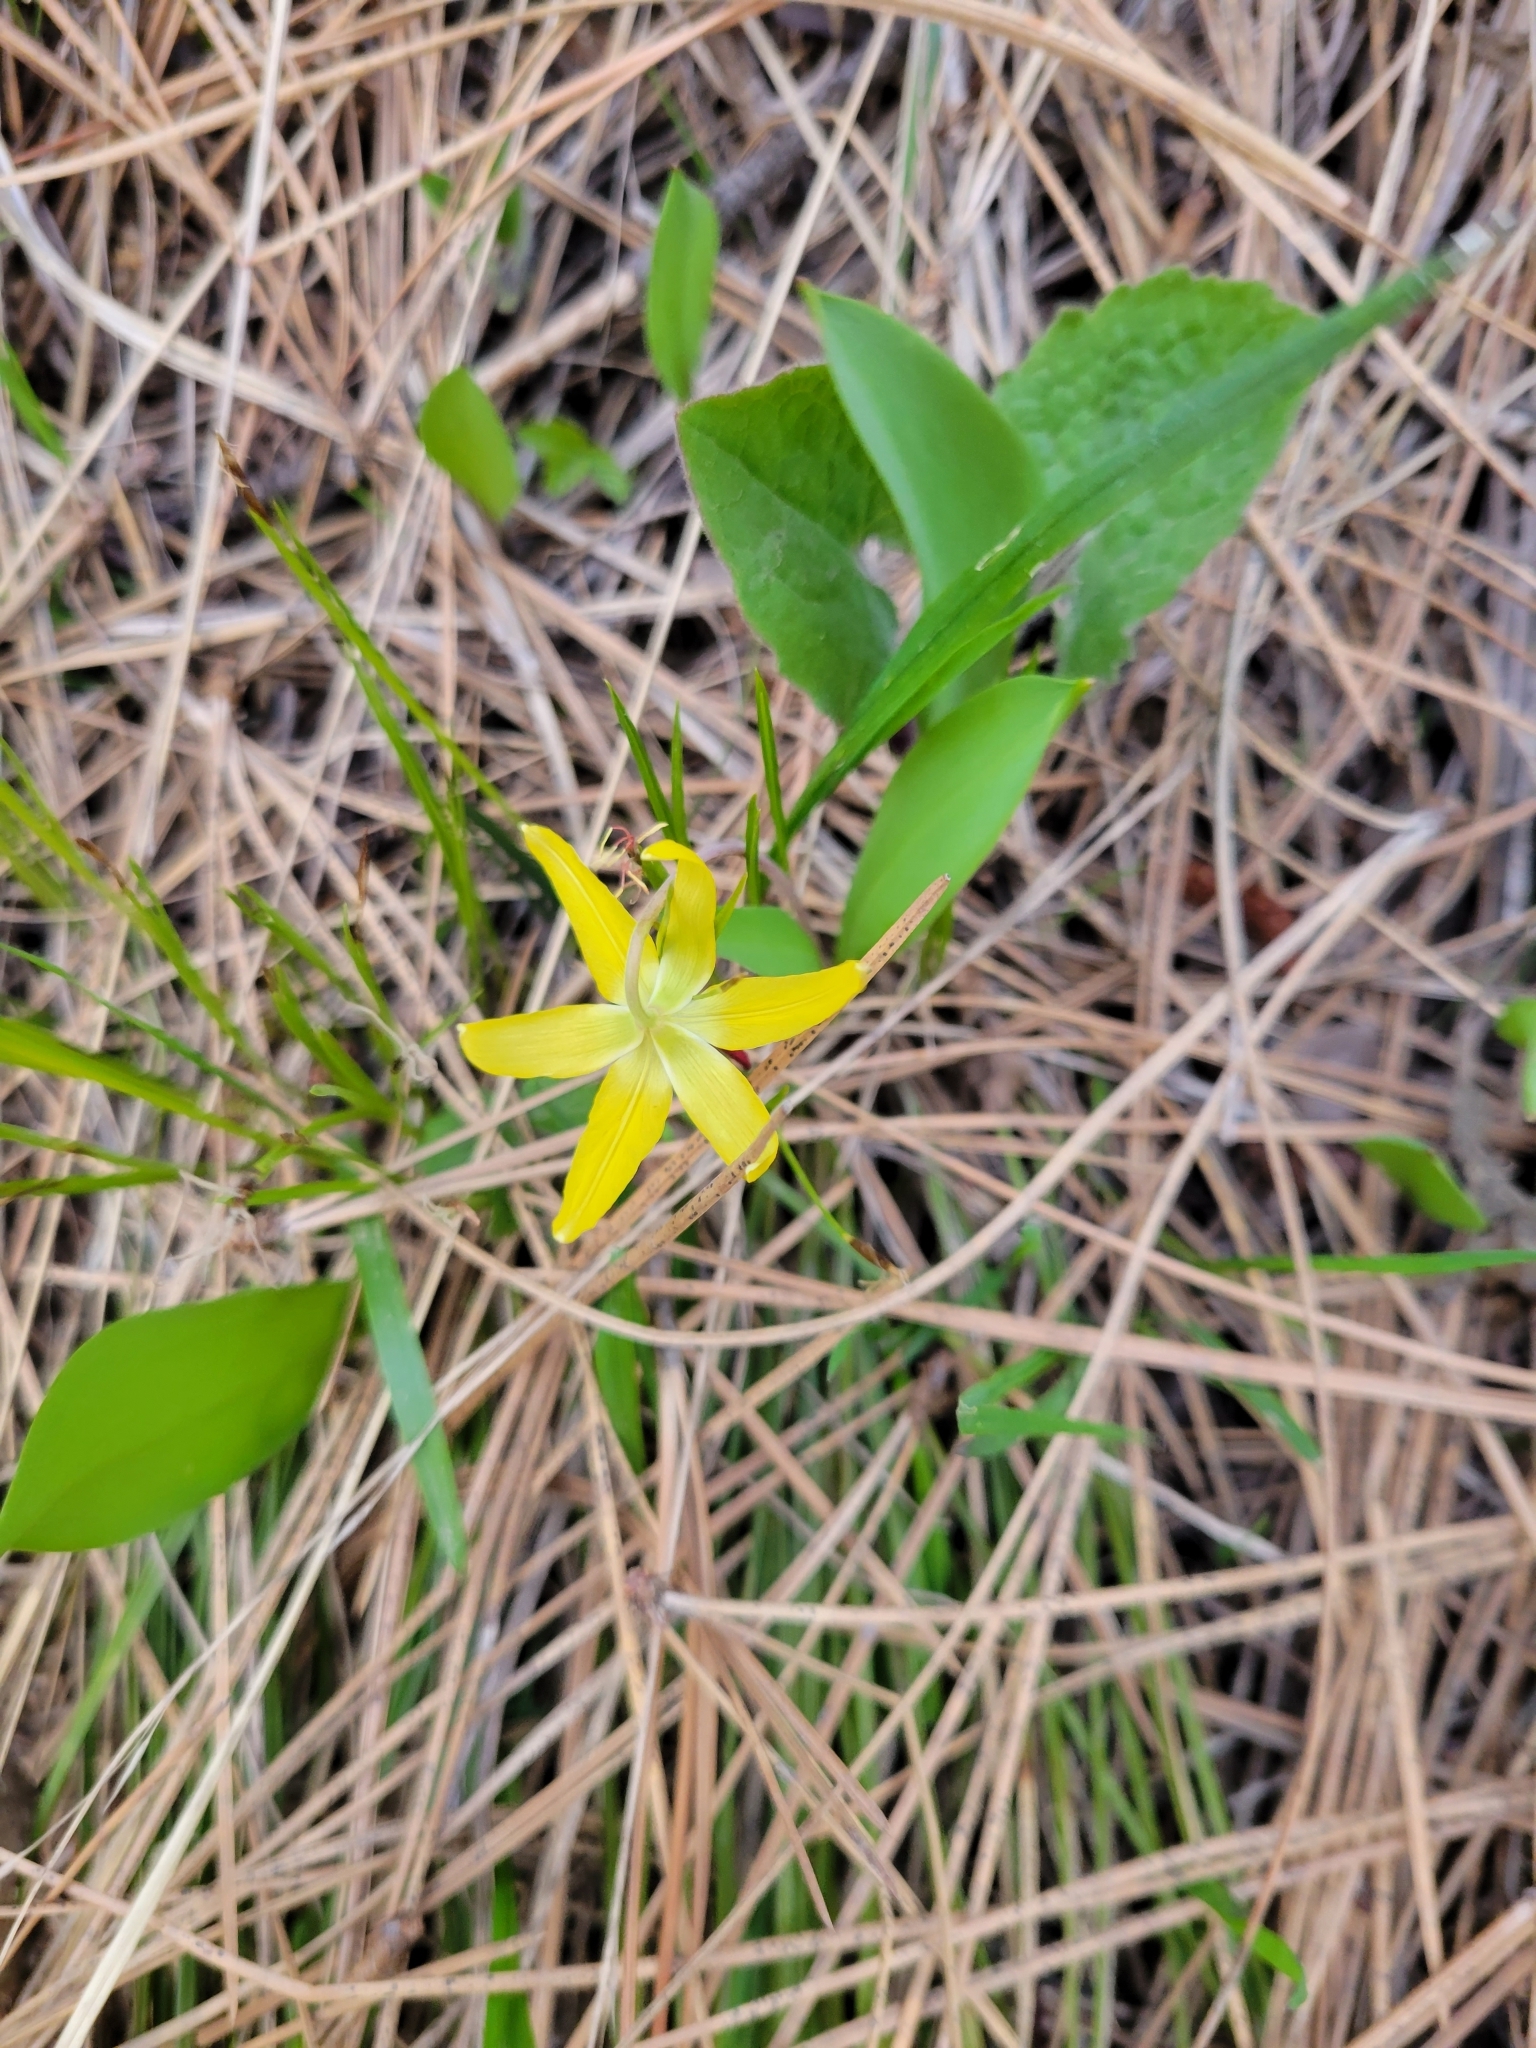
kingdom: Plantae
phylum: Tracheophyta
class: Liliopsida
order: Liliales
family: Liliaceae
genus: Erythronium
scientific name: Erythronium grandiflorum
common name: Avalanche-lily
